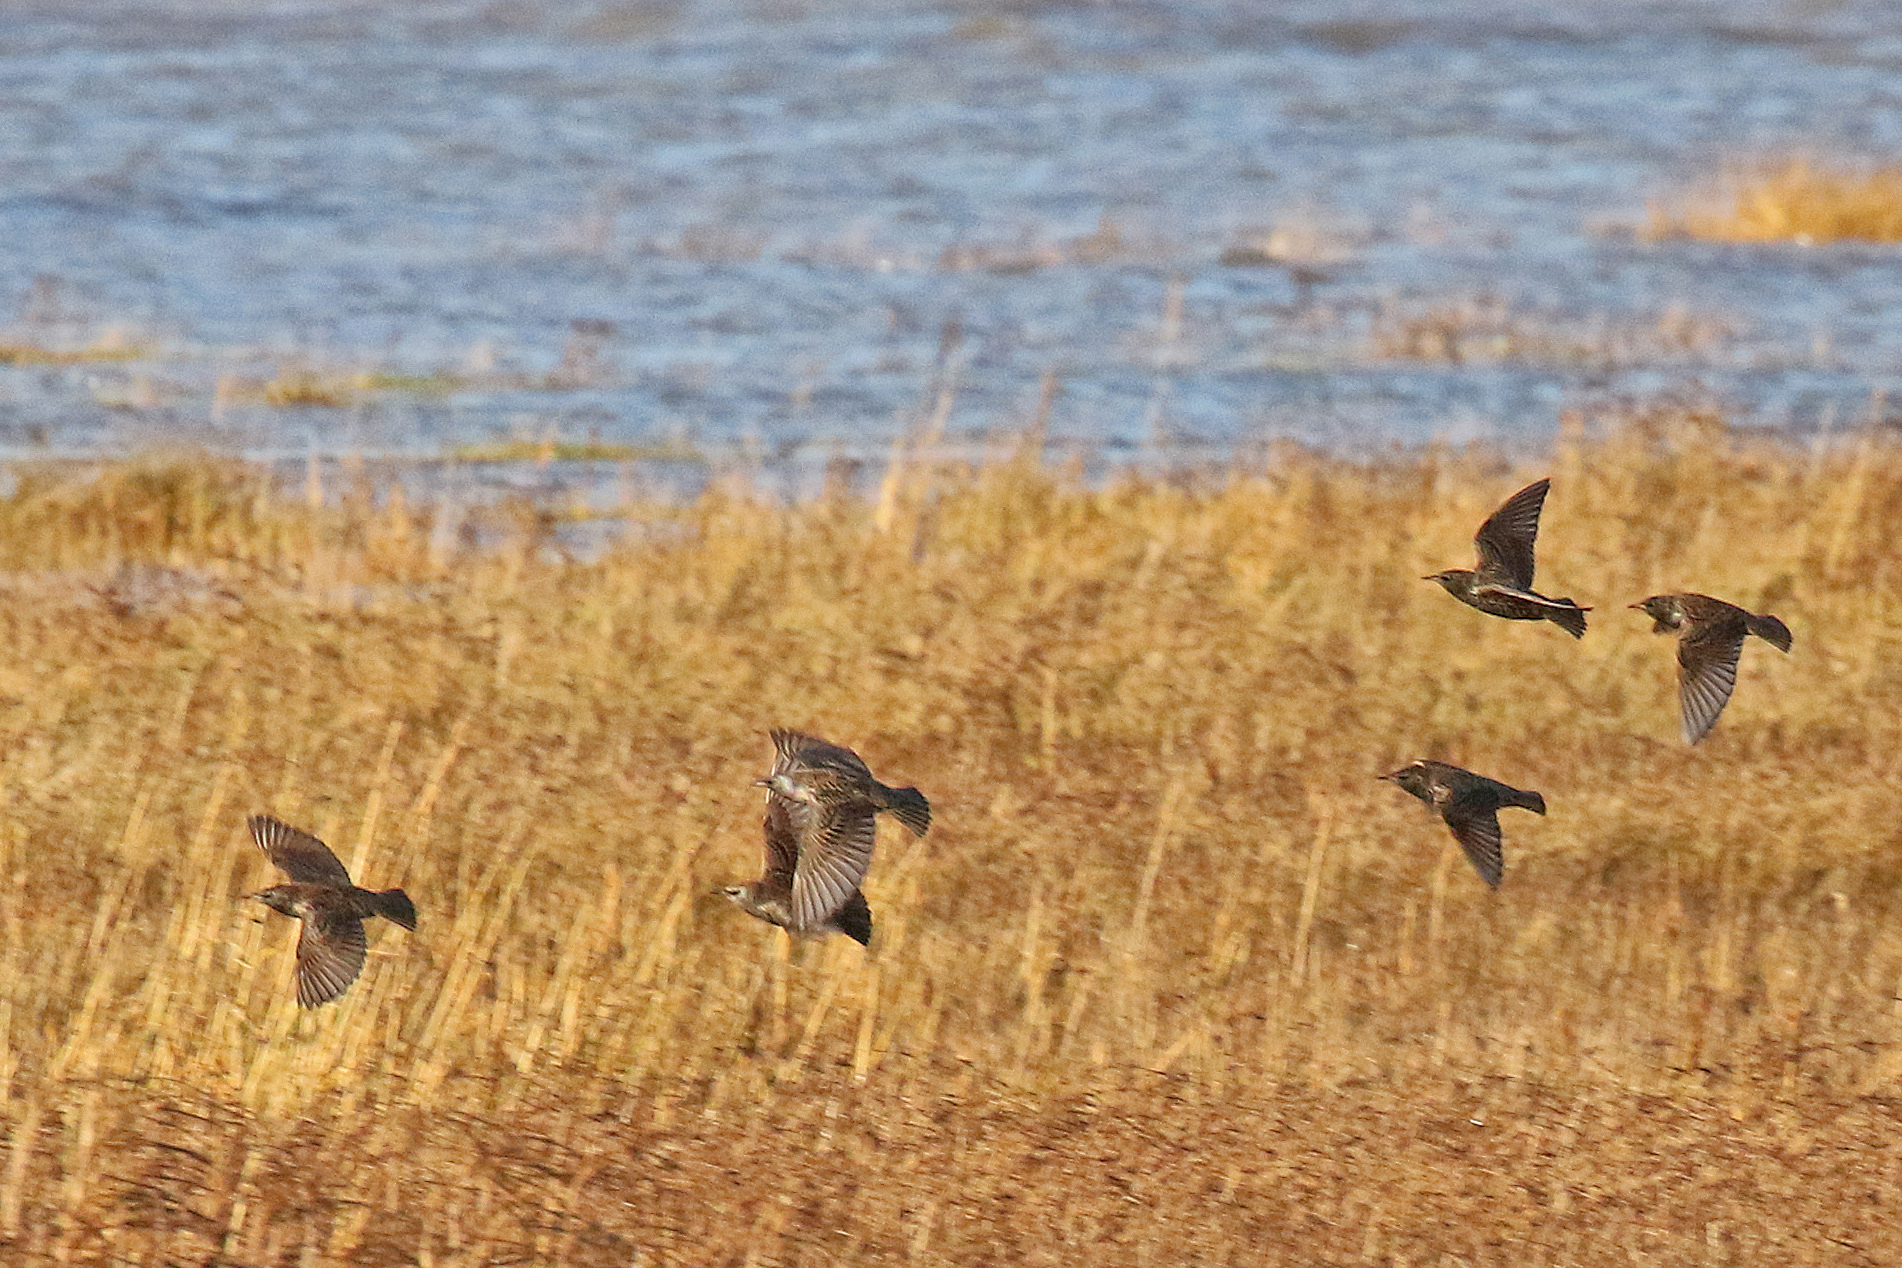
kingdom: Animalia
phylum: Chordata
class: Aves
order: Passeriformes
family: Sturnidae
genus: Sturnus
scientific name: Sturnus vulgaris
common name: Common starling
